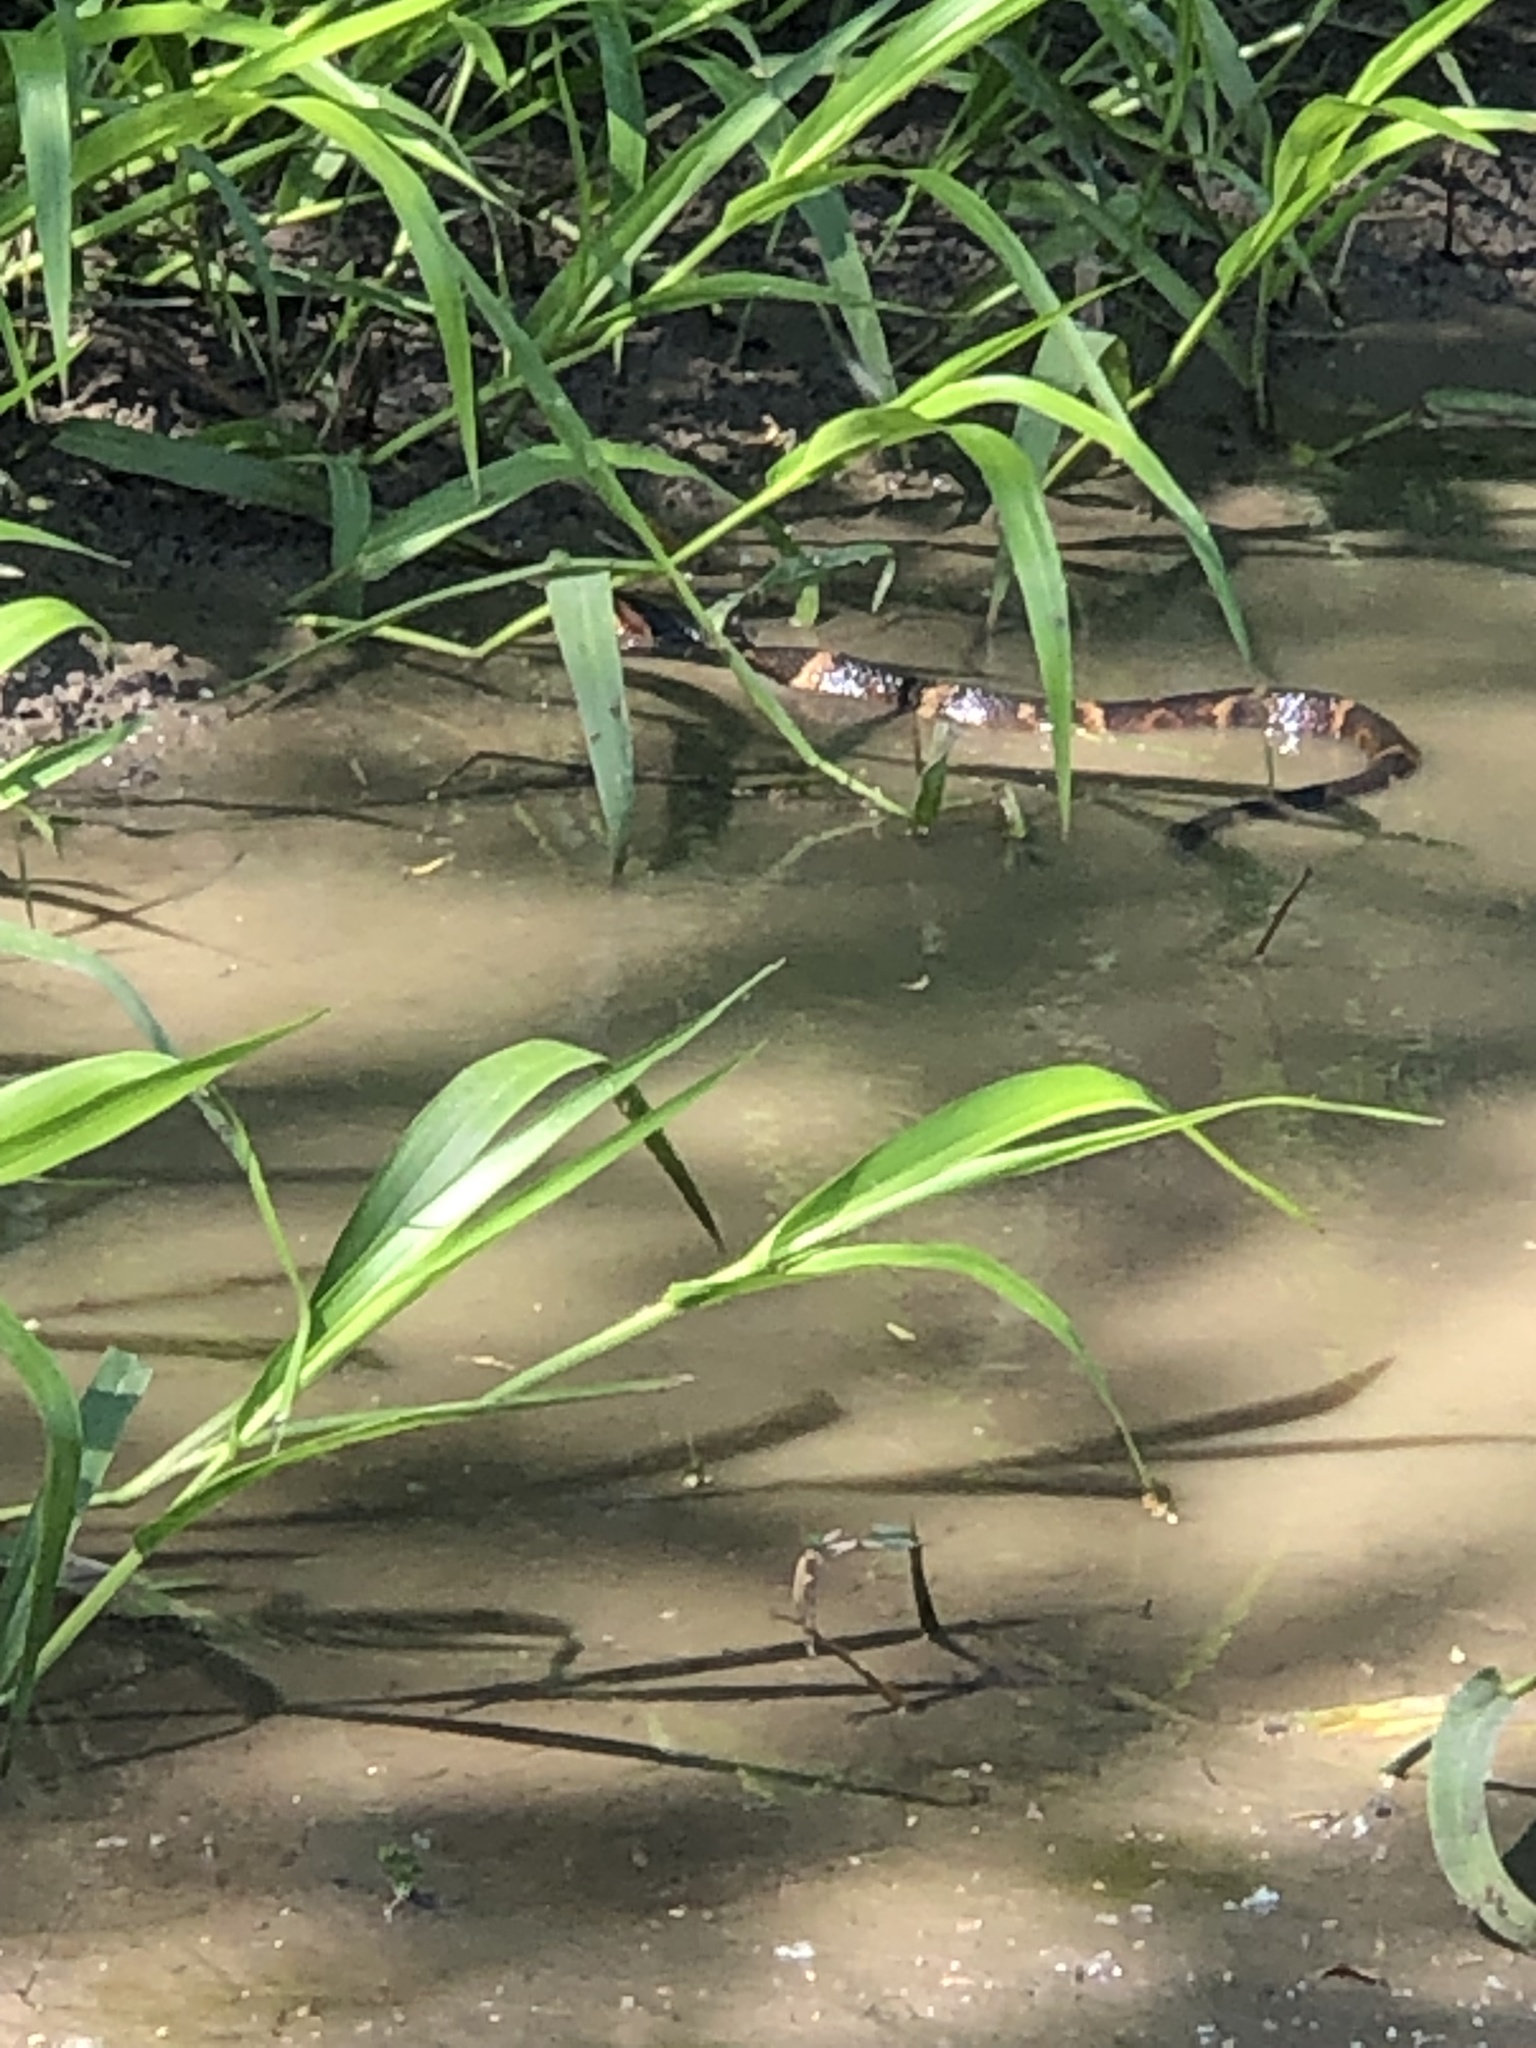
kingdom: Animalia
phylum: Chordata
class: Squamata
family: Colubridae
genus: Nerodia
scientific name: Nerodia fasciata
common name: Southern water snake
